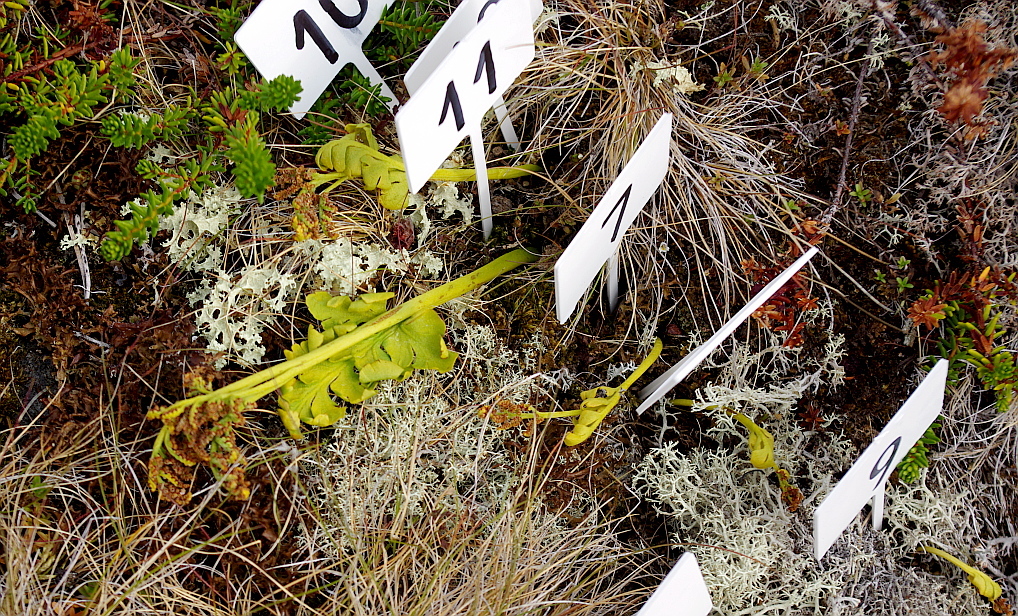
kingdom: Plantae
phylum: Tracheophyta
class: Polypodiopsida
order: Ophioglossales
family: Ophioglossaceae
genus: Botrychium
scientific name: Botrychium boreale
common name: Boreal moonwort
